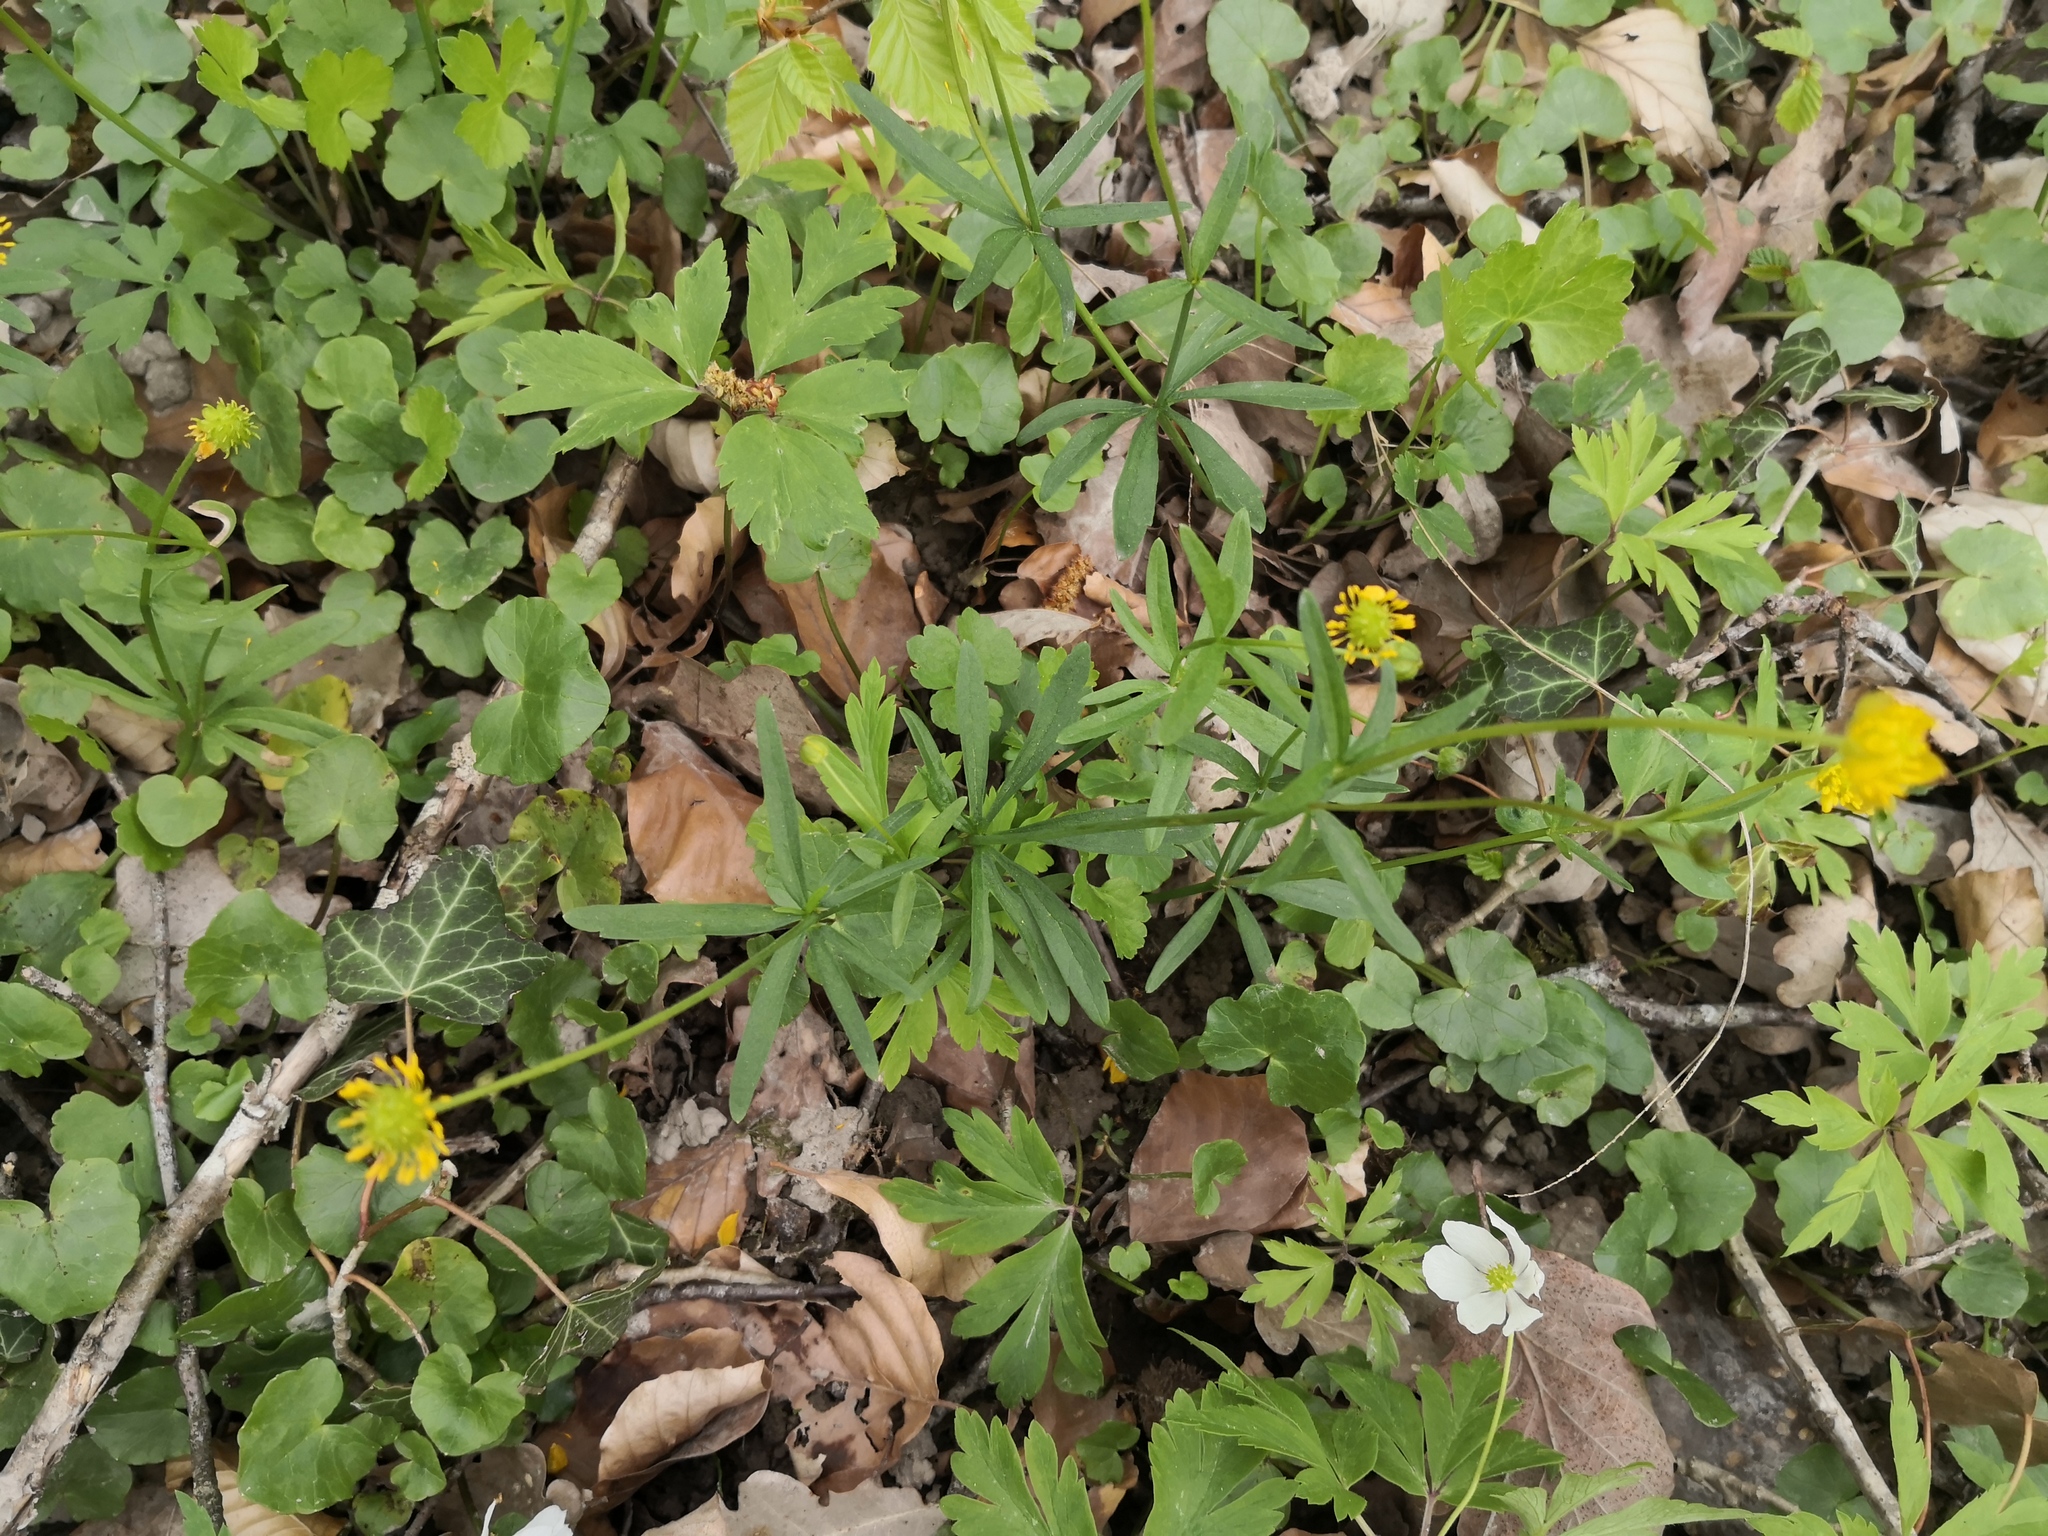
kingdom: Plantae
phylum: Tracheophyta
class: Magnoliopsida
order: Ranunculales
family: Ranunculaceae
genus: Ranunculus
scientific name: Ranunculus auricomus
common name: Goldilocks buttercup
